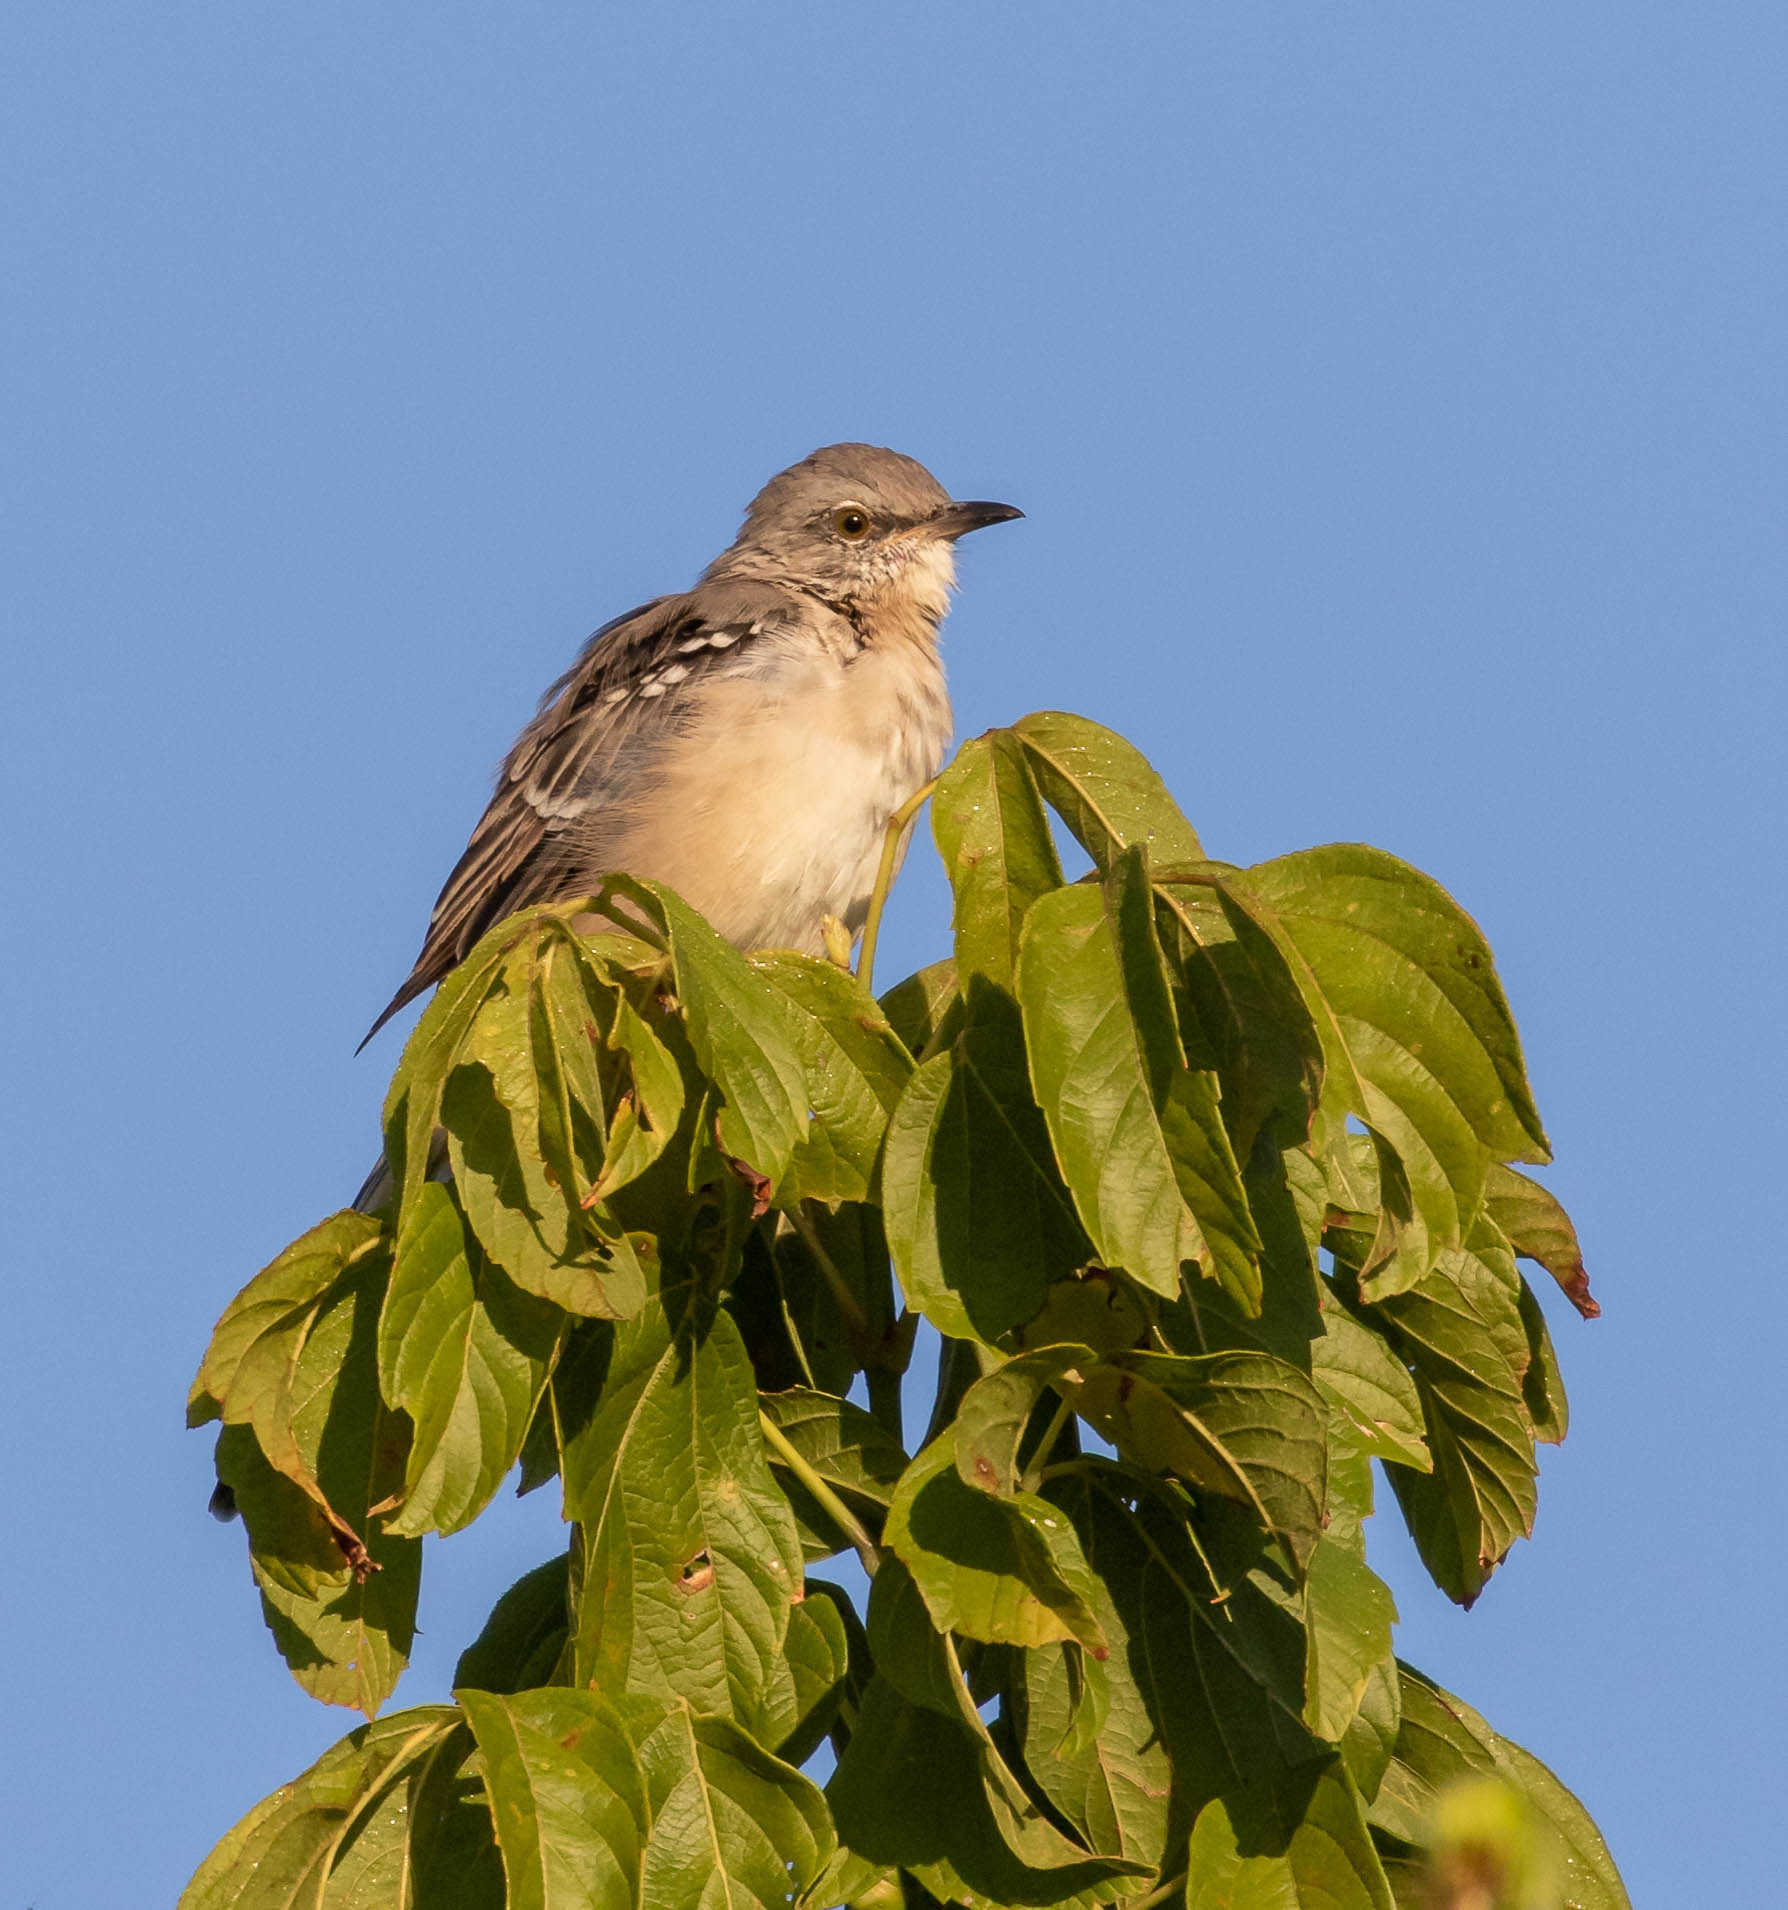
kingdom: Animalia
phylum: Chordata
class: Aves
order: Passeriformes
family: Mimidae
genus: Mimus
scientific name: Mimus polyglottos
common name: Northern mockingbird
